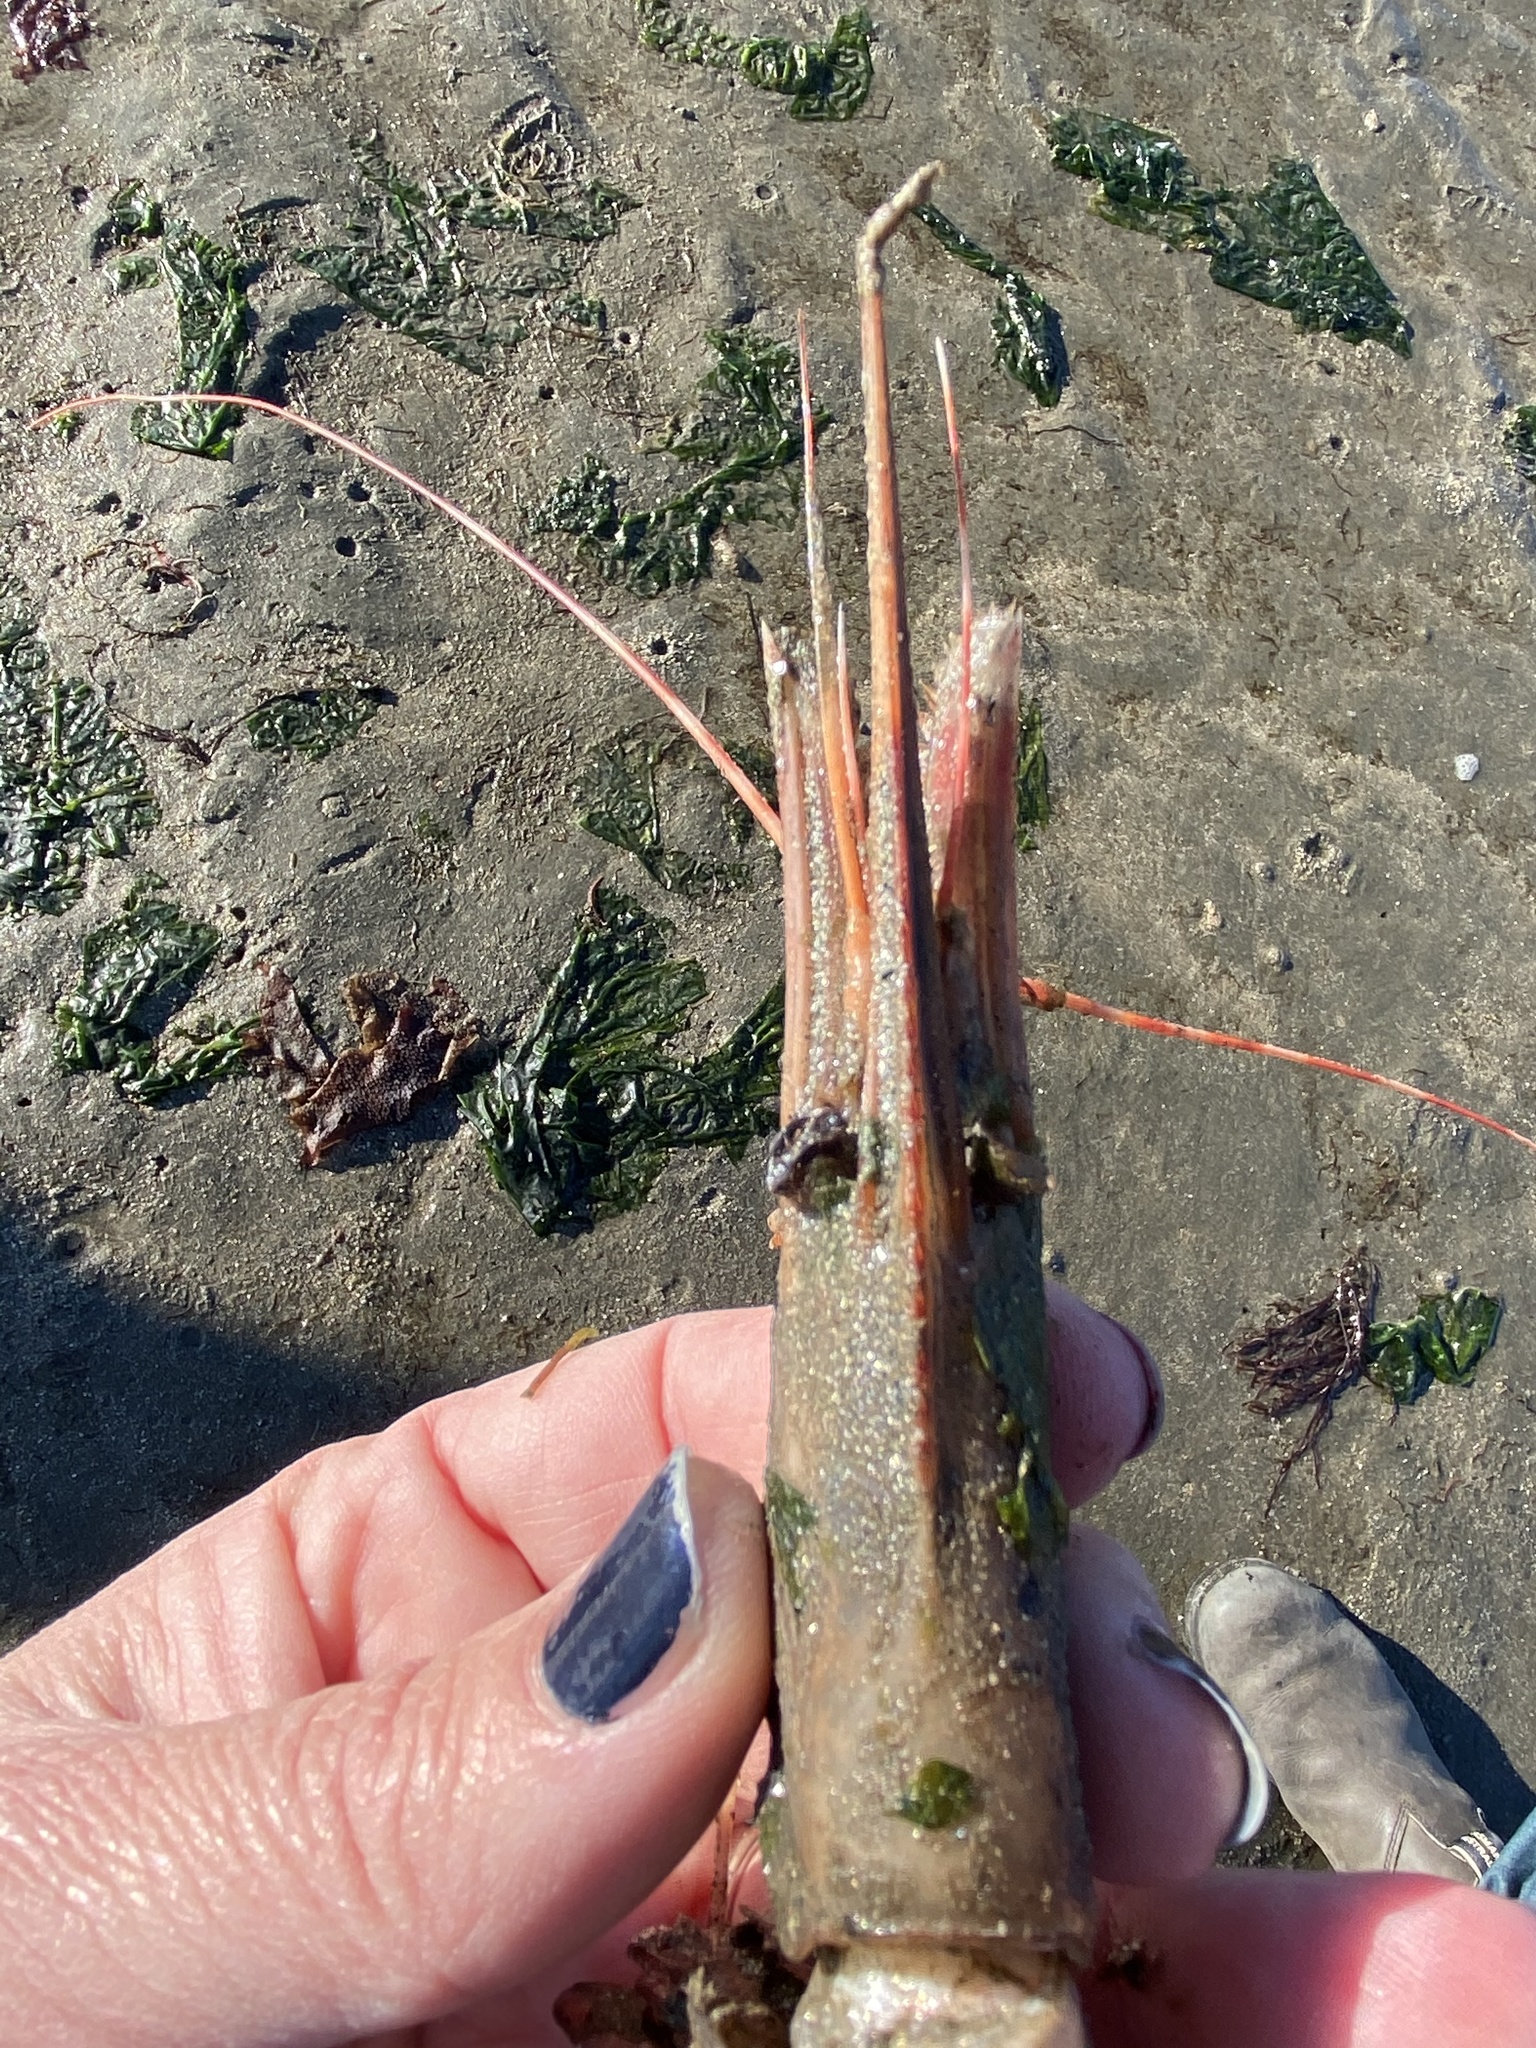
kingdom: Animalia
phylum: Arthropoda
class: Malacostraca
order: Decapoda
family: Pandalidae
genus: Pandalus
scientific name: Pandalus platyceros
